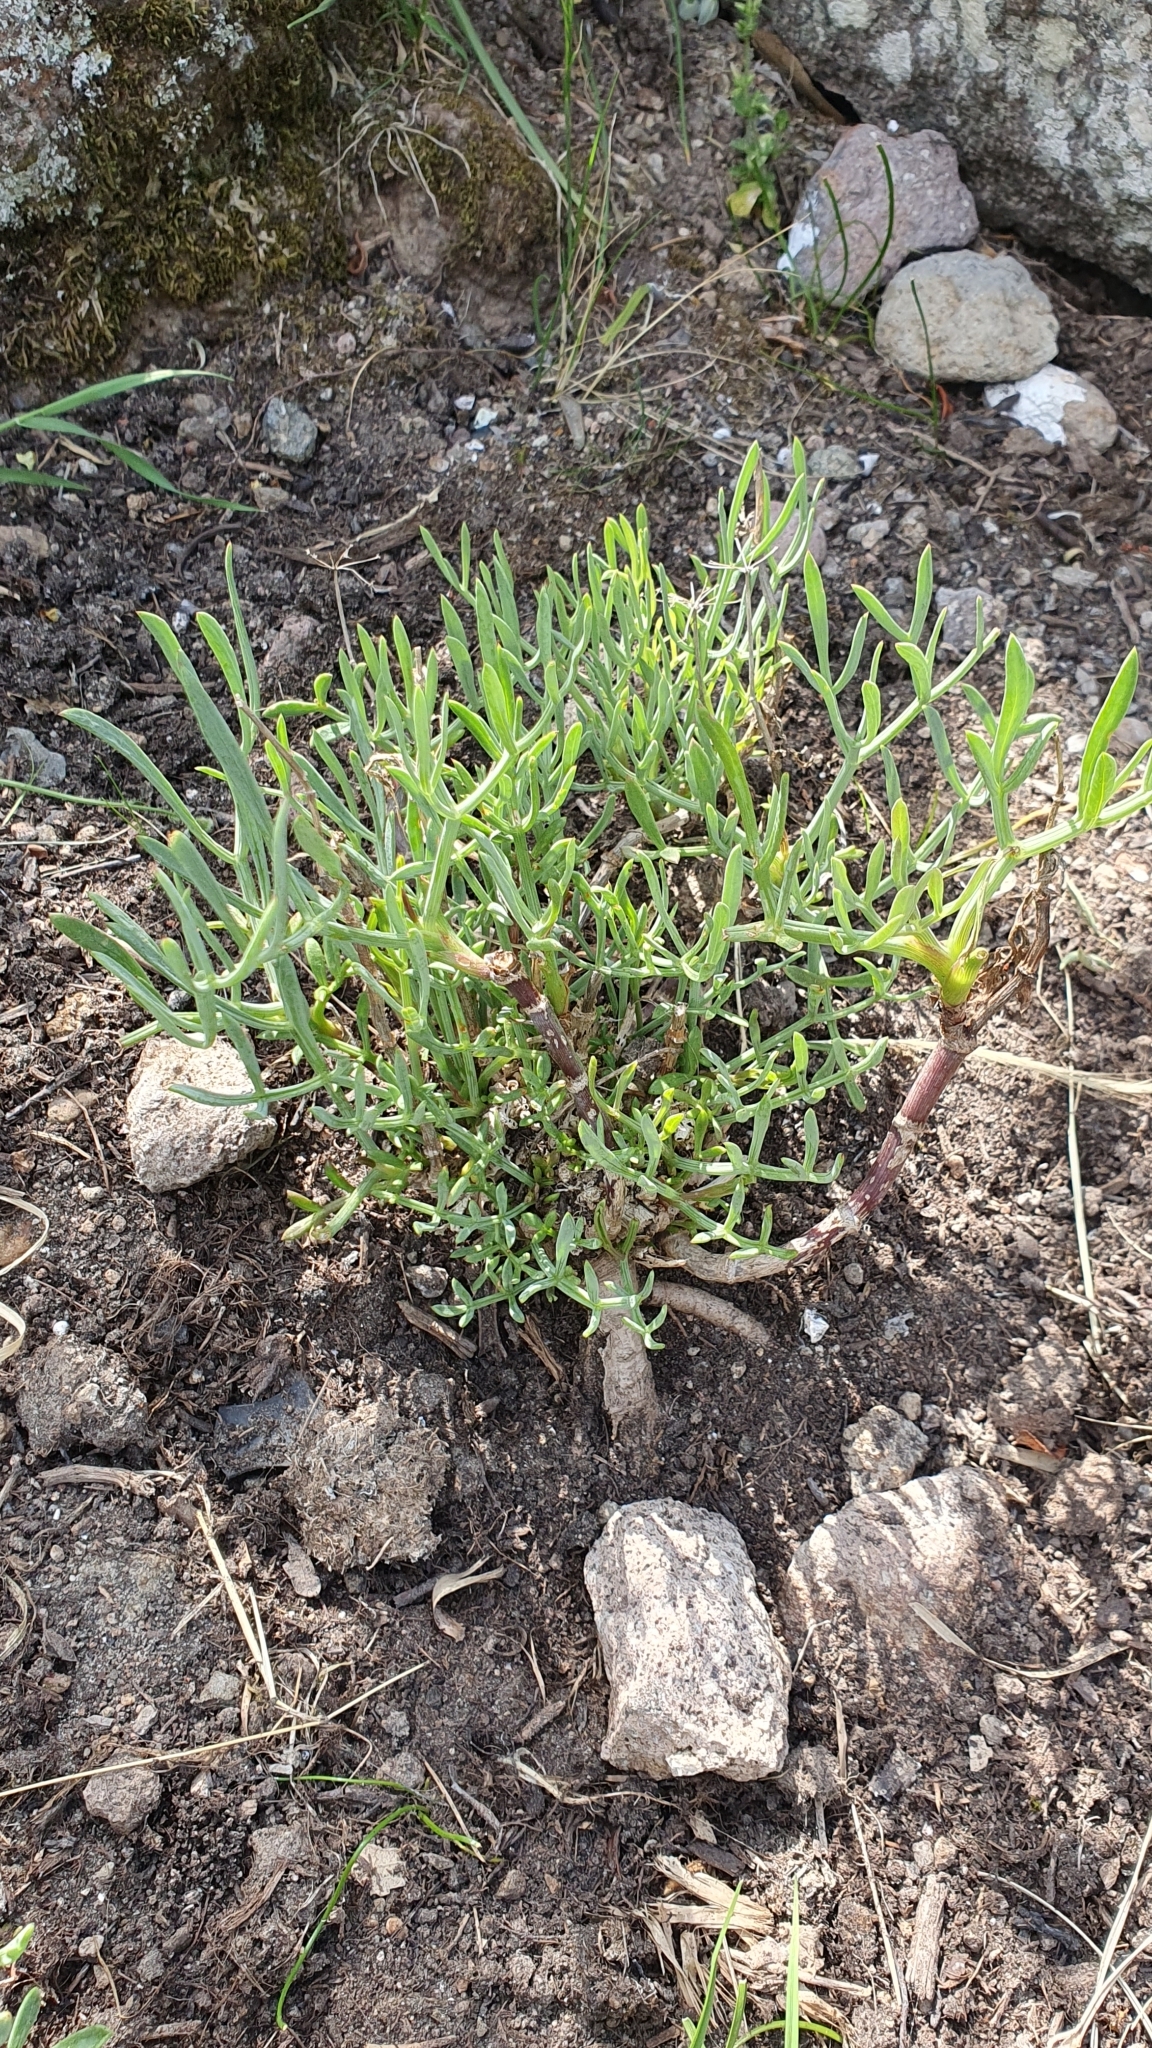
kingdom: Plantae
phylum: Tracheophyta
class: Magnoliopsida
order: Apiales
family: Apiaceae
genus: Crithmum
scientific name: Crithmum maritimum
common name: Rock samphire
